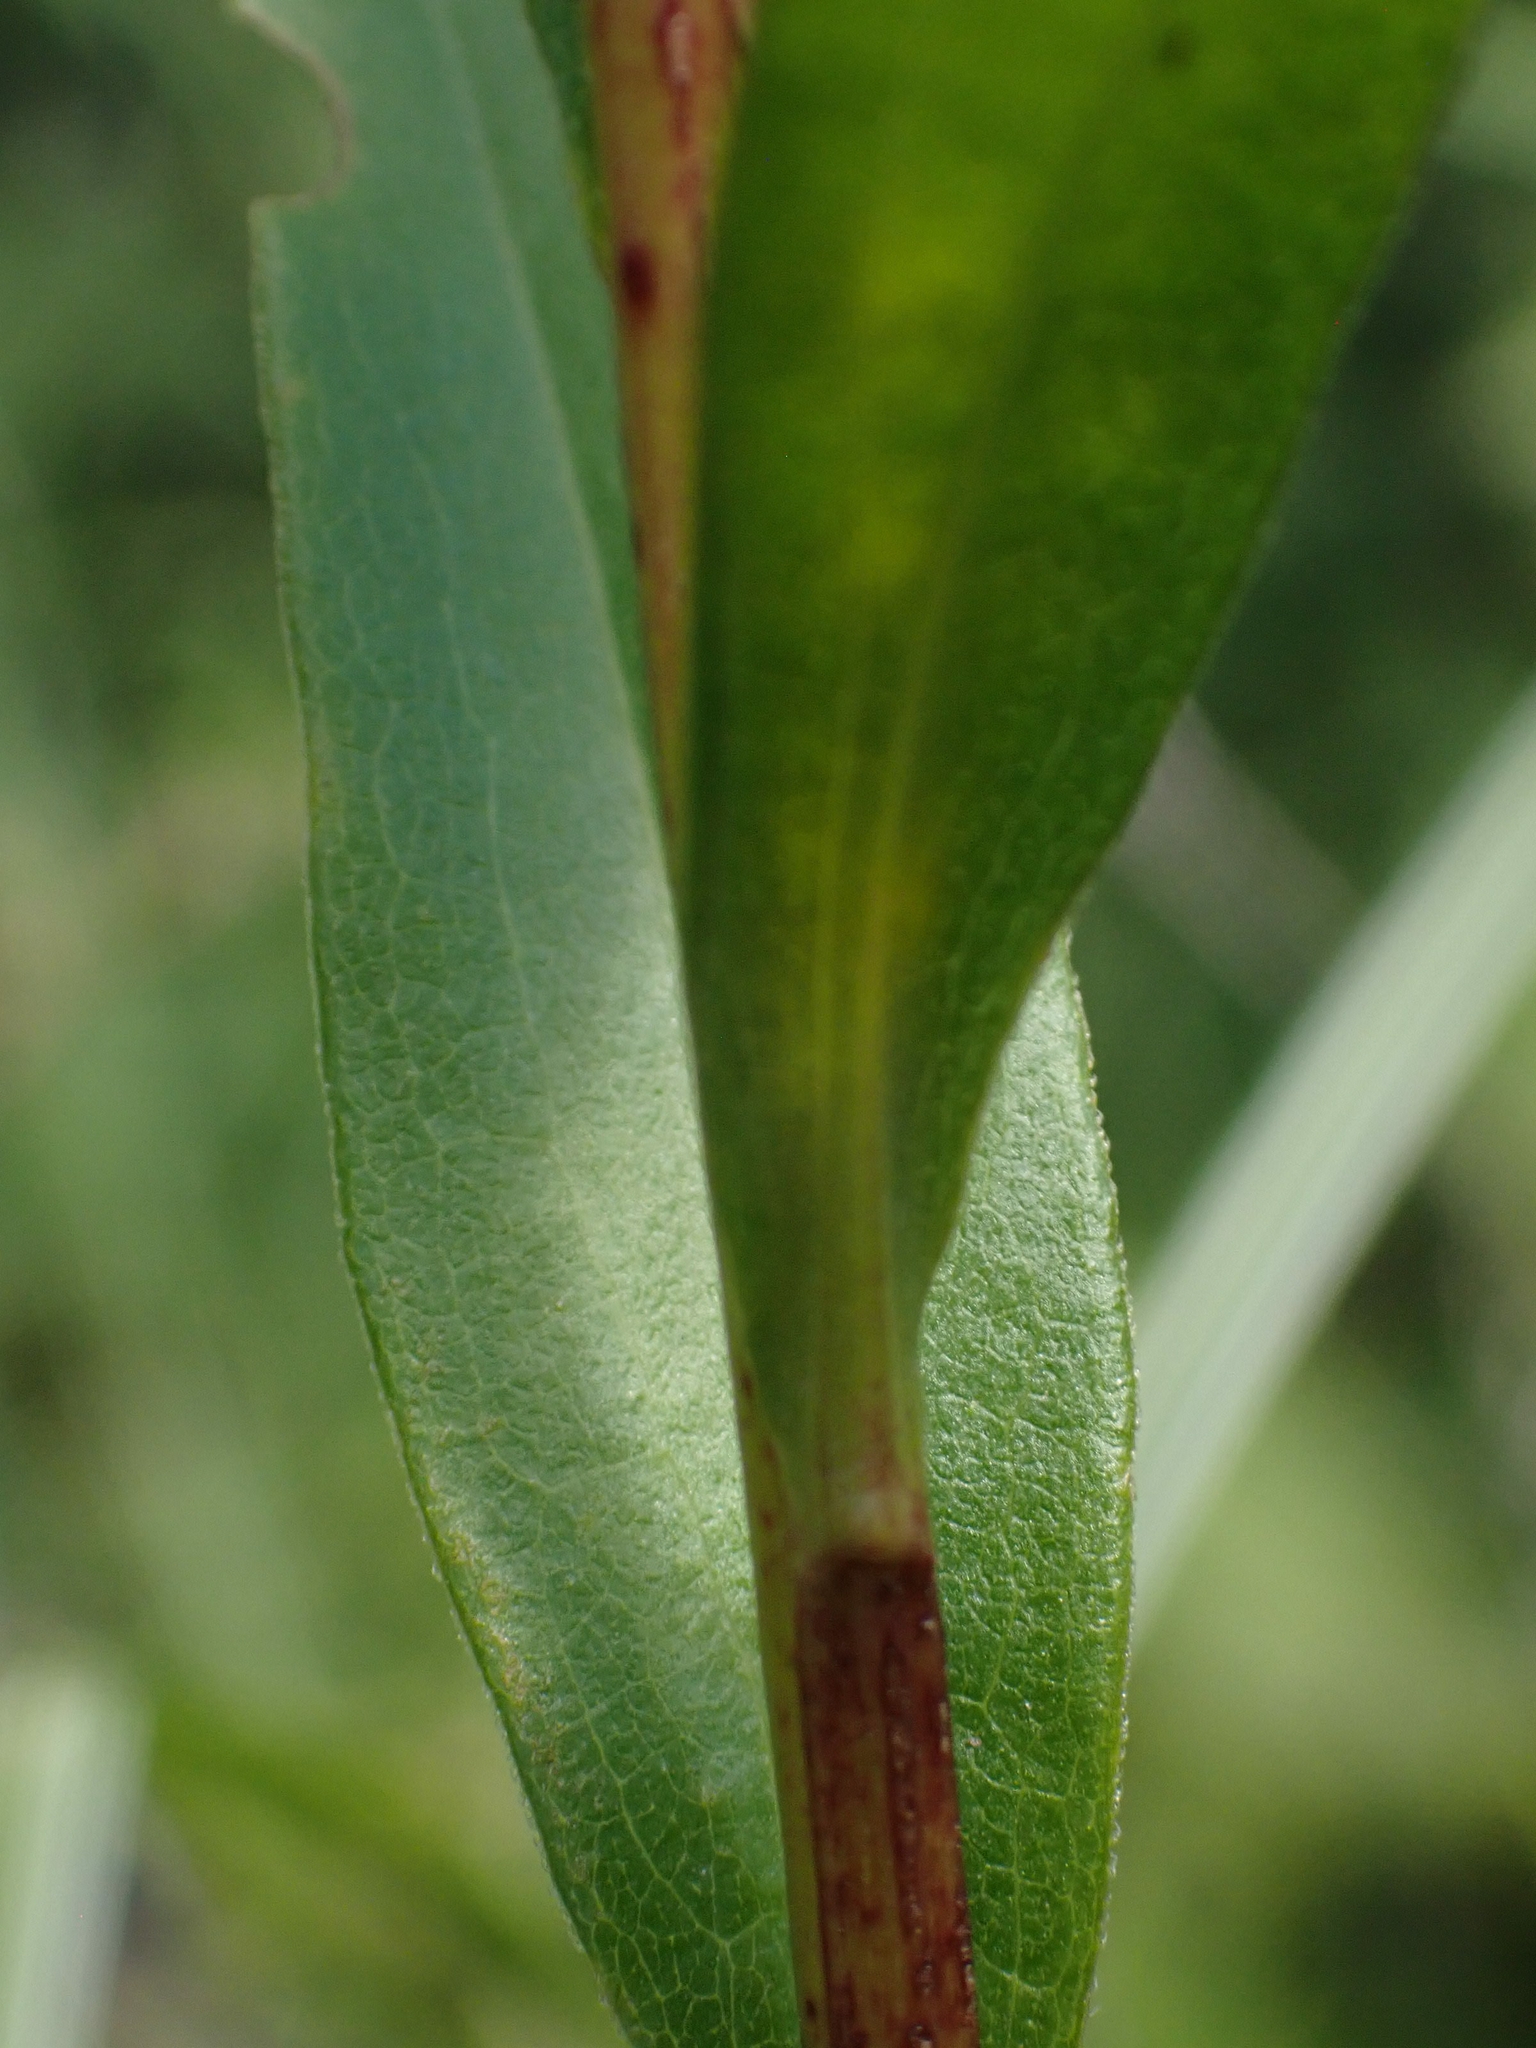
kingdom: Plantae
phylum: Tracheophyta
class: Magnoliopsida
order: Asterales
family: Asteraceae
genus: Solidago
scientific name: Solidago uliginosa
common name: Bog goldenrod
